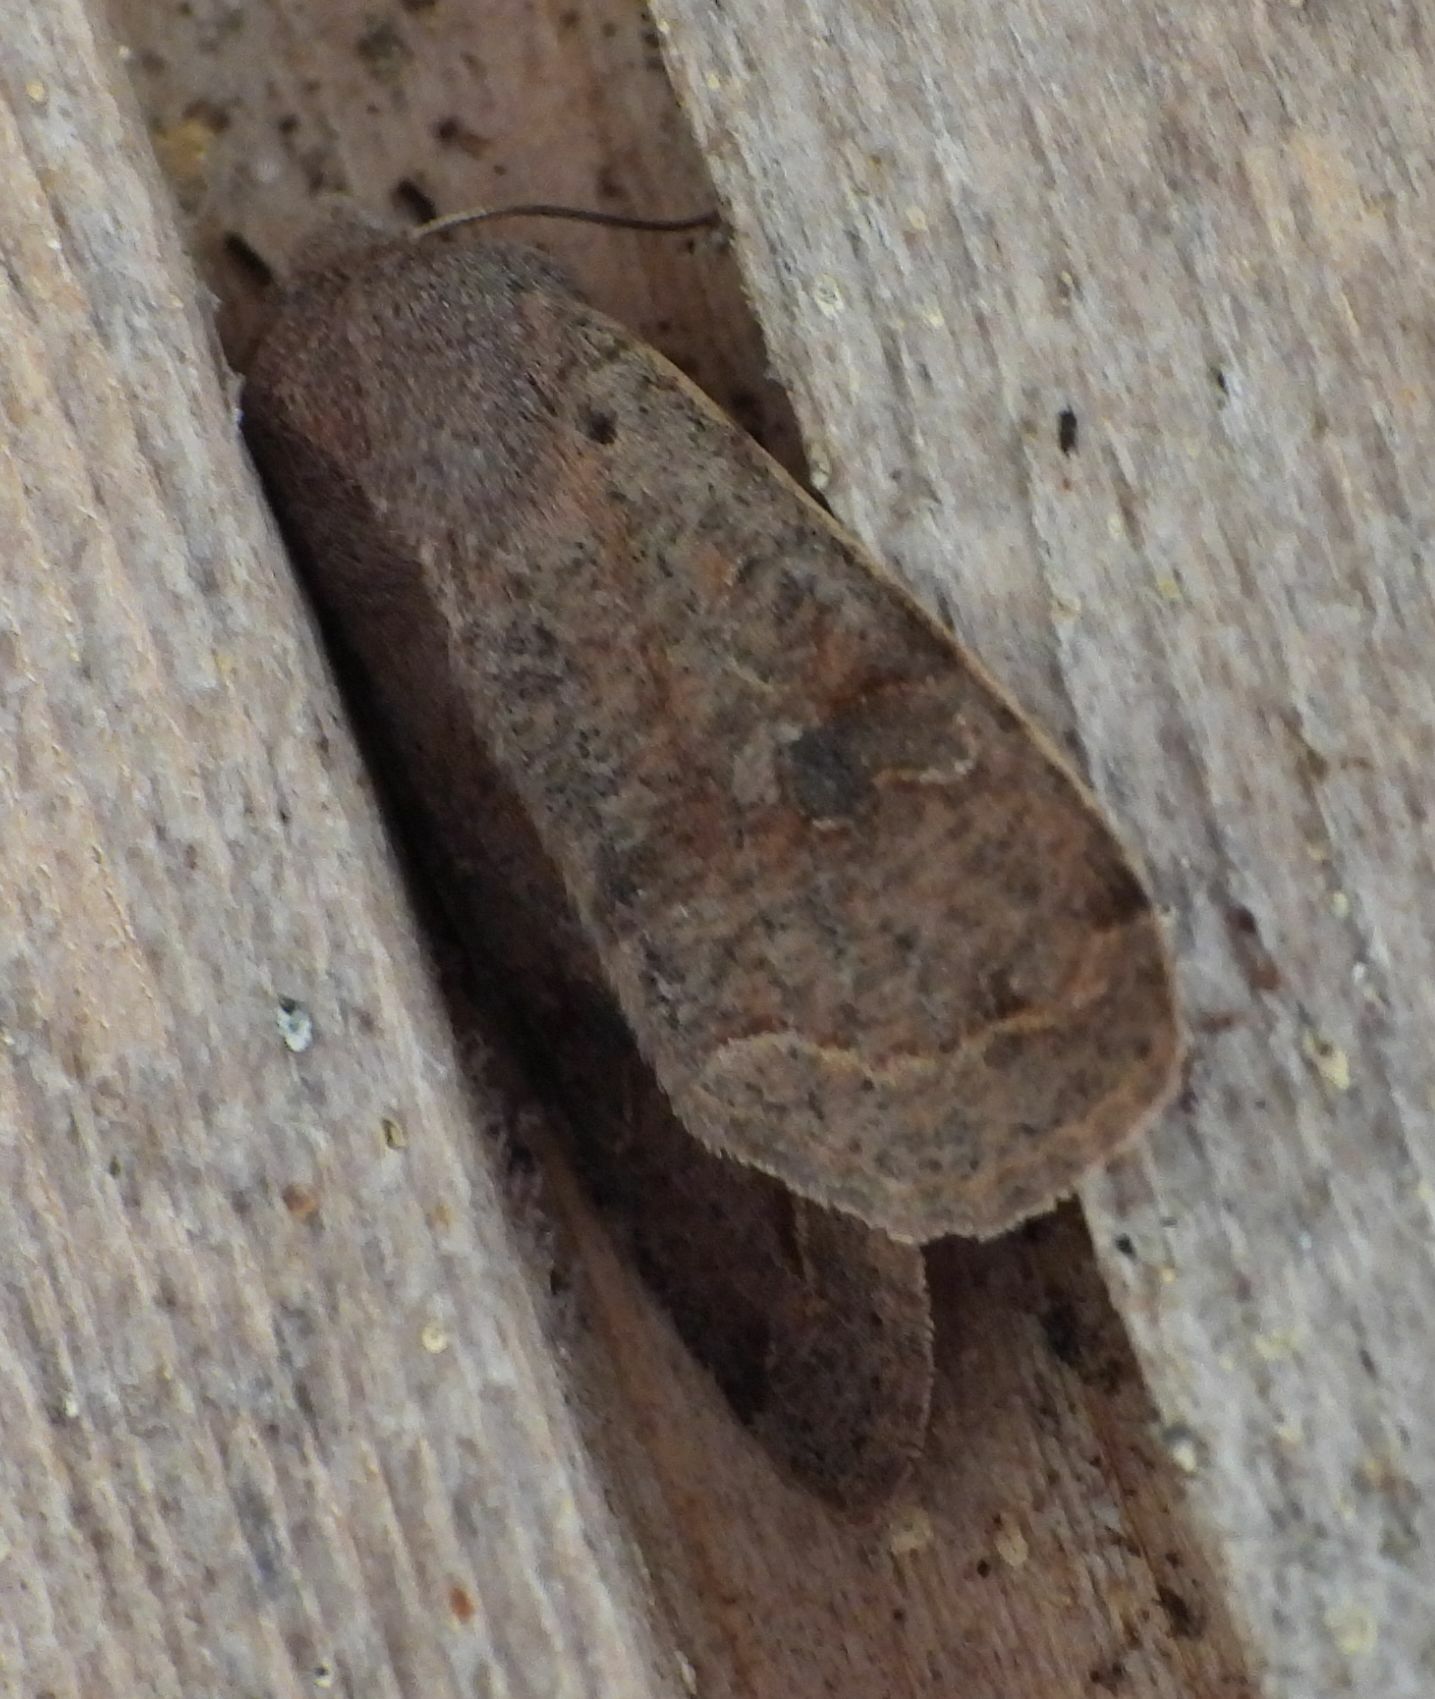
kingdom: Animalia
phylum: Arthropoda
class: Insecta
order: Lepidoptera
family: Noctuidae
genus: Orthosia
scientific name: Orthosia hibisci
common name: Green fruitworm
